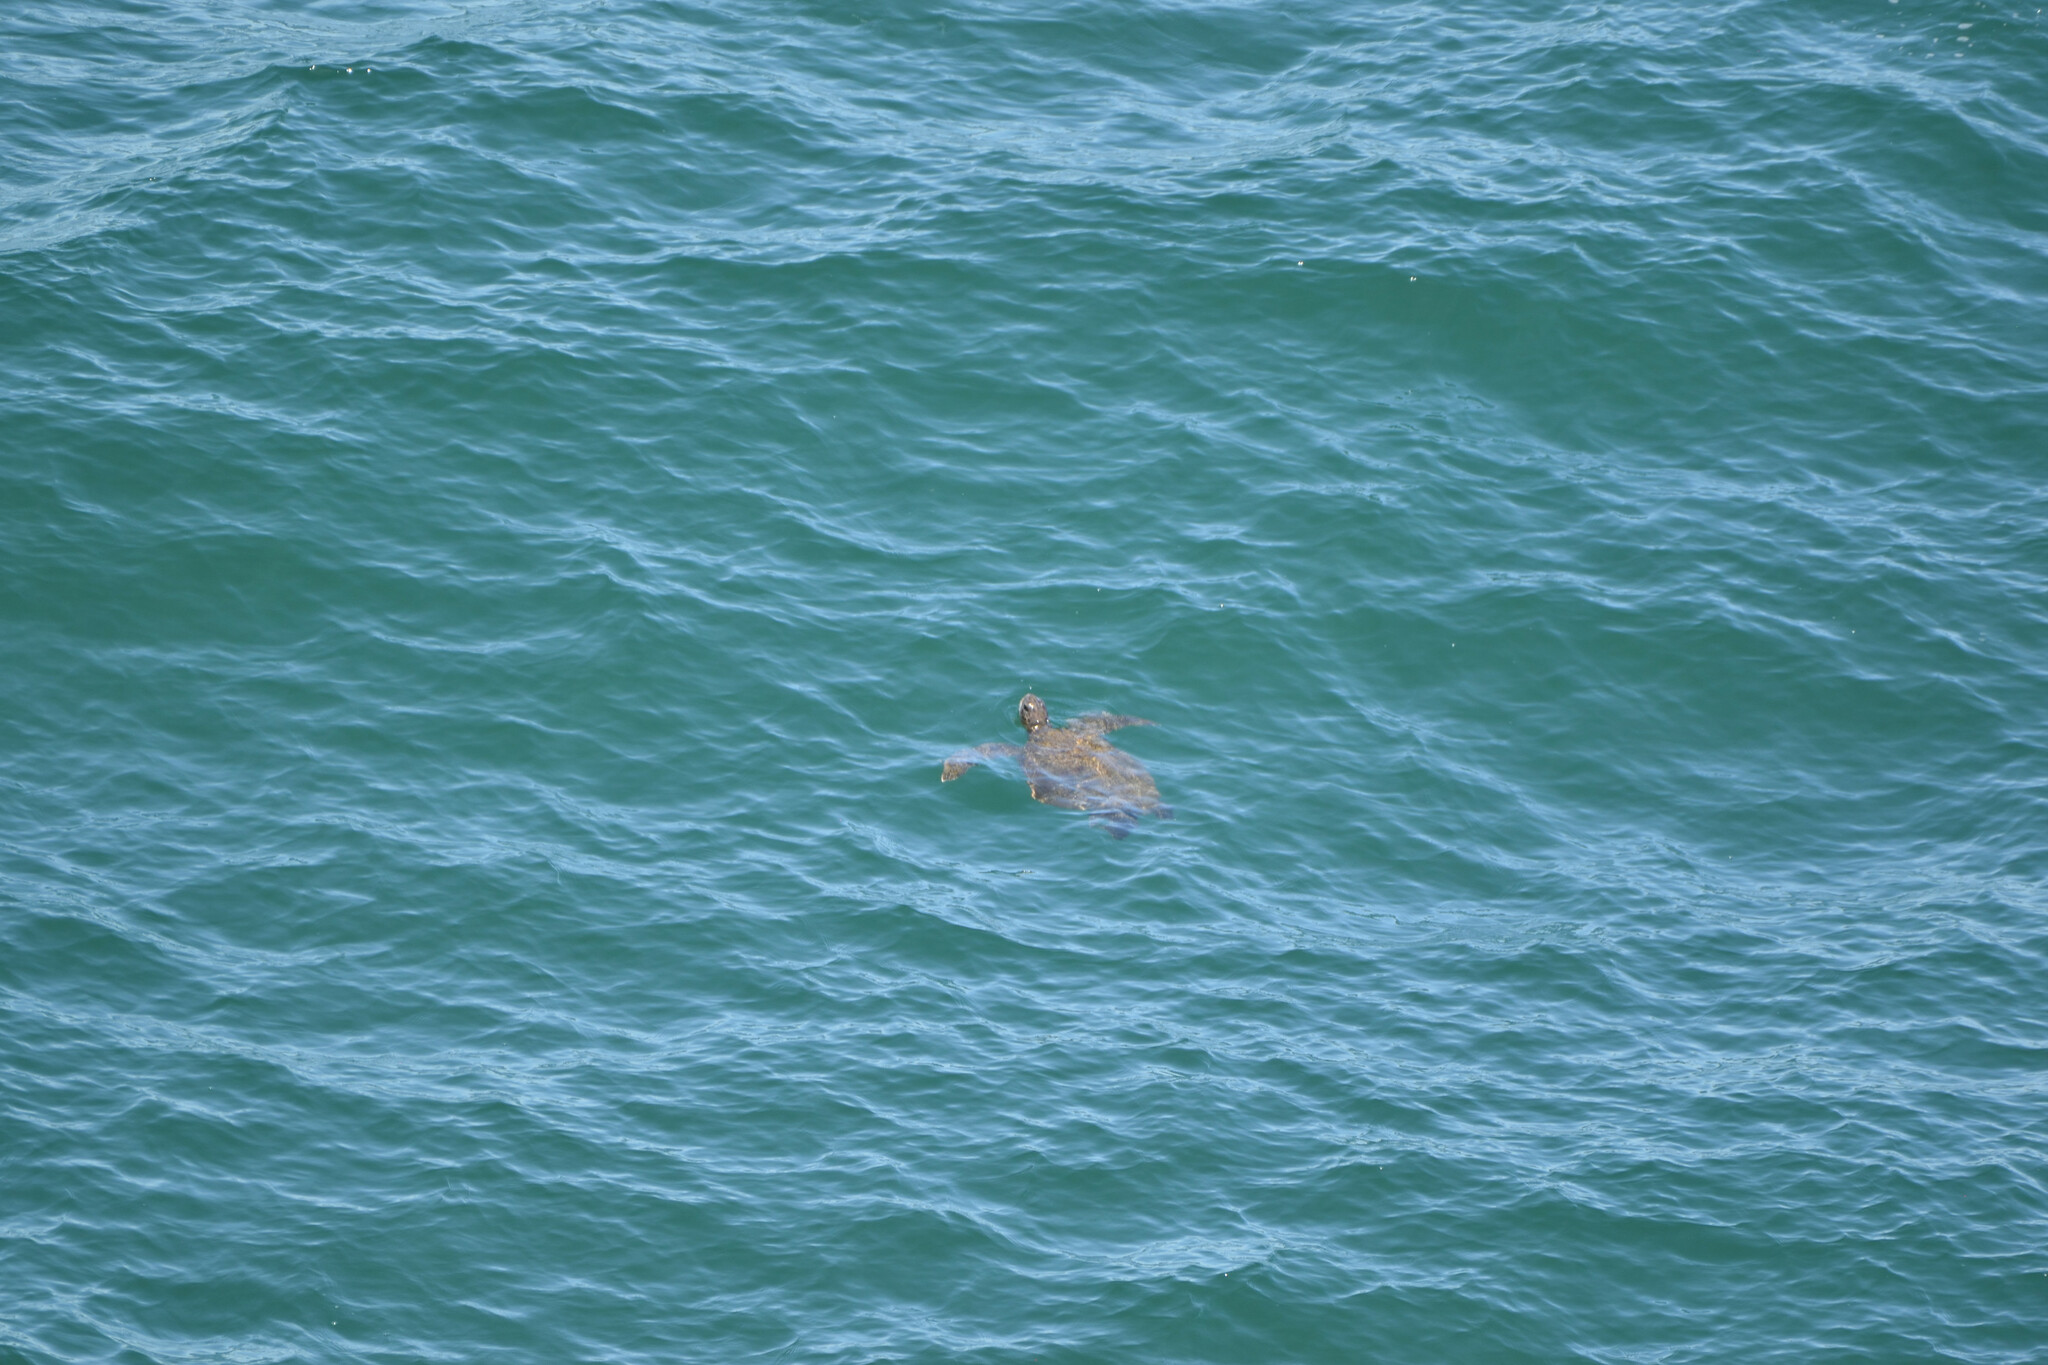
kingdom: Animalia
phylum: Chordata
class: Testudines
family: Cheloniidae
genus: Chelonia
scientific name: Chelonia mydas
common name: Green turtle
